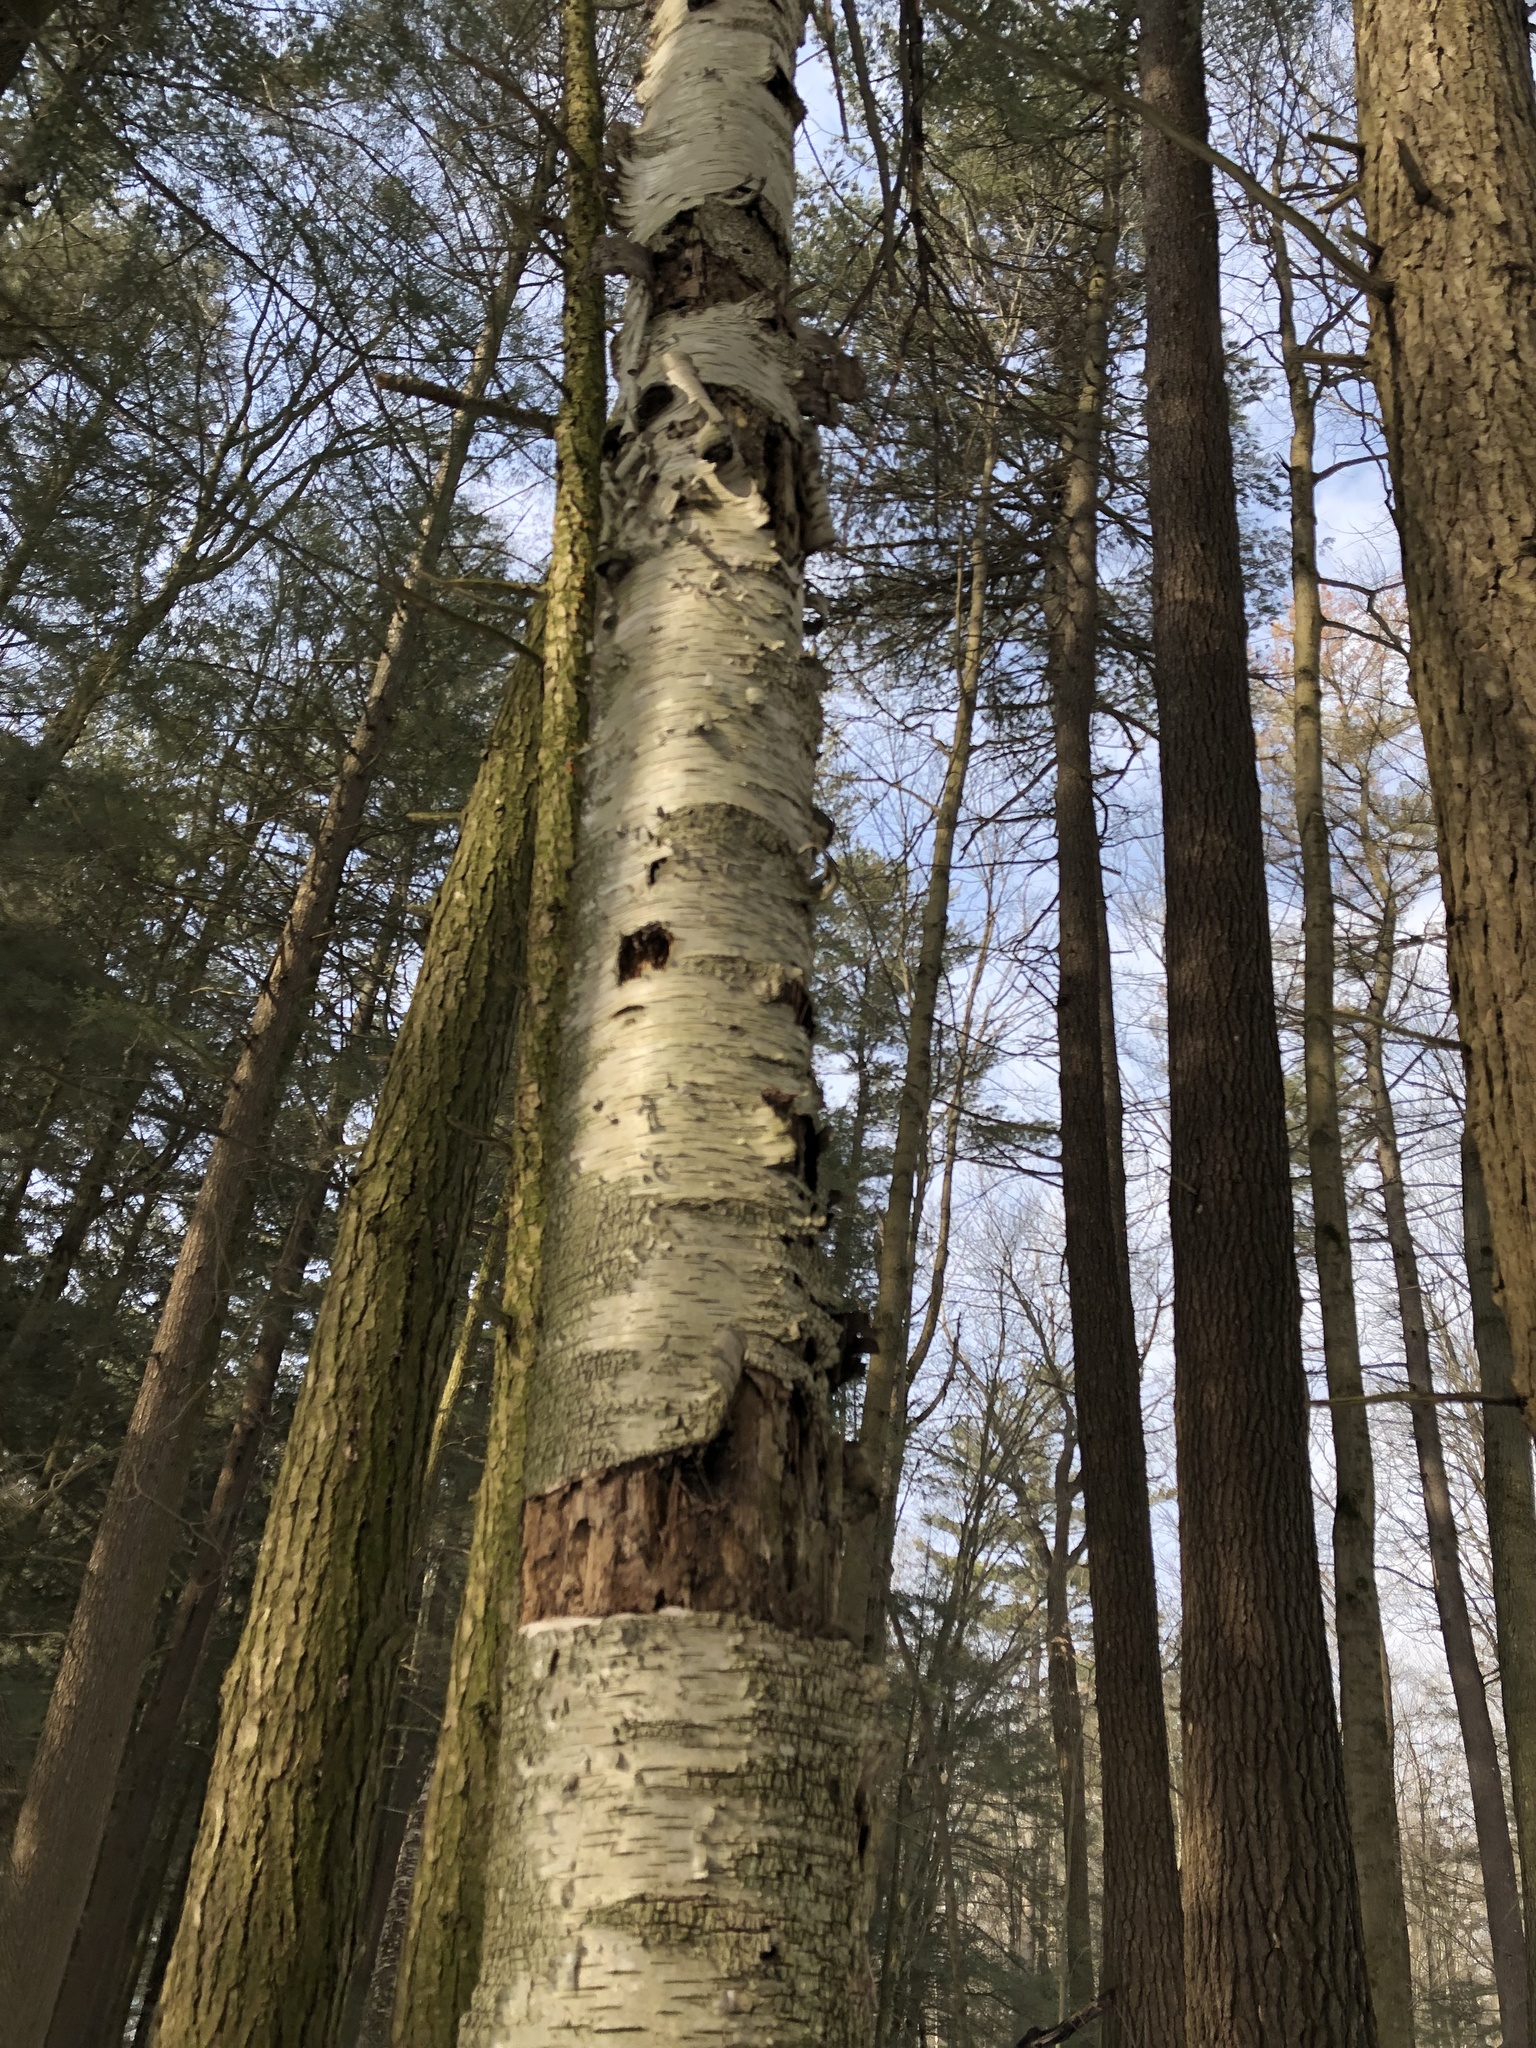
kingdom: Plantae
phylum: Tracheophyta
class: Magnoliopsida
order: Fagales
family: Betulaceae
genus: Betula
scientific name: Betula papyrifera
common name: Paper birch
